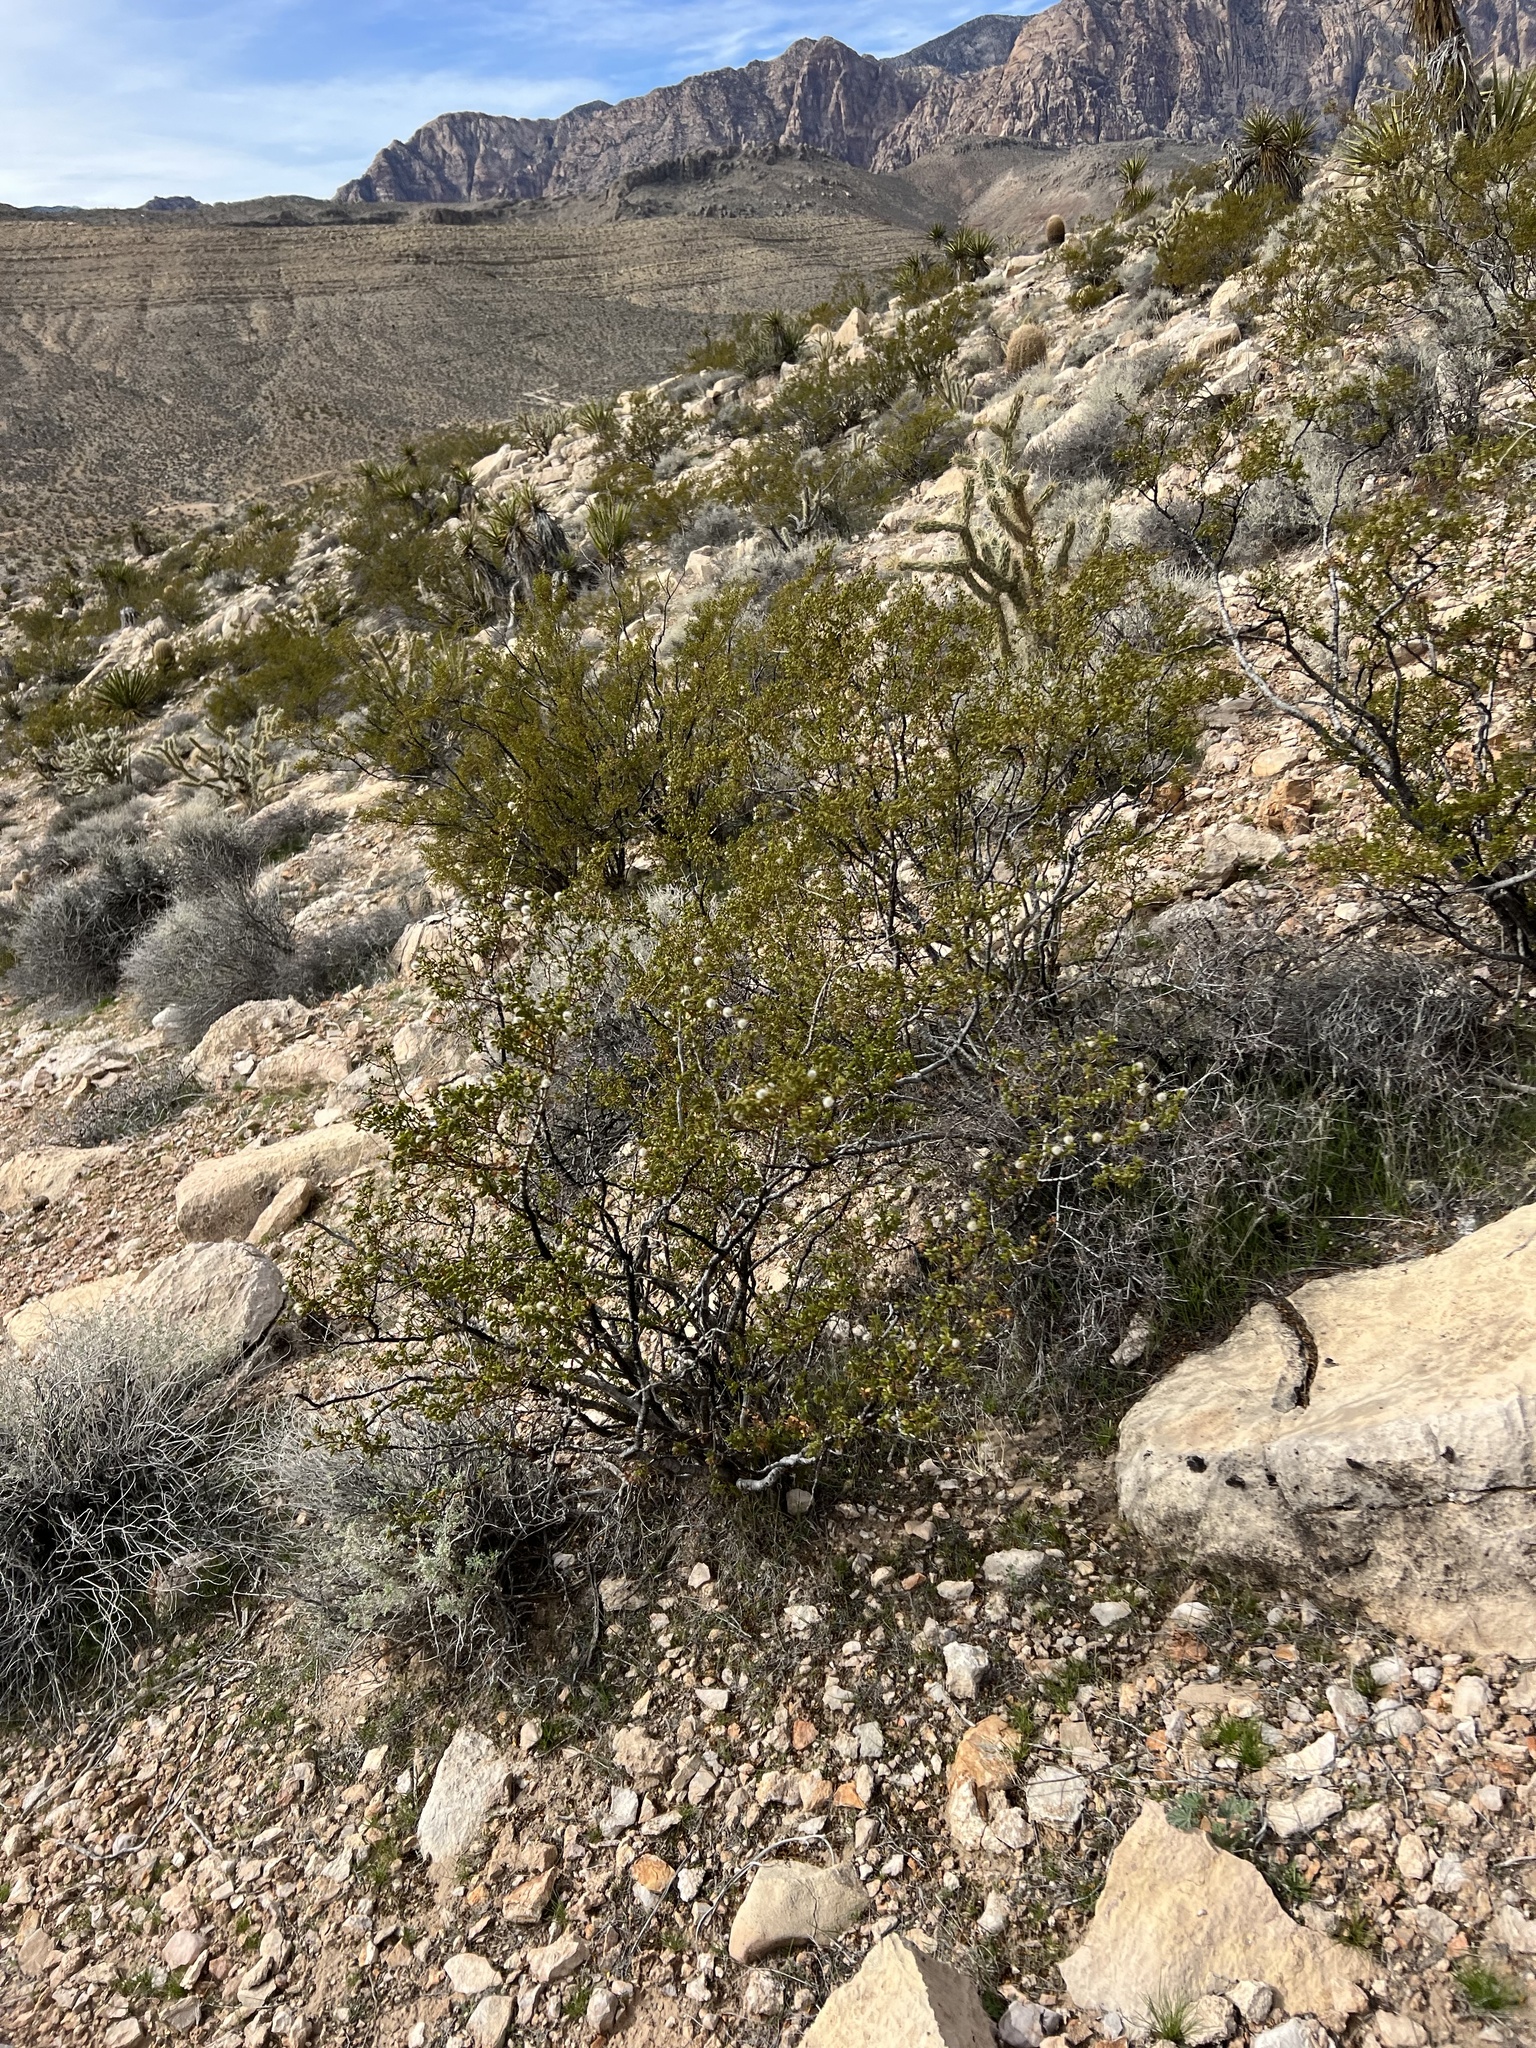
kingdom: Plantae
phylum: Tracheophyta
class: Magnoliopsida
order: Zygophyllales
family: Zygophyllaceae
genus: Larrea
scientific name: Larrea tridentata
